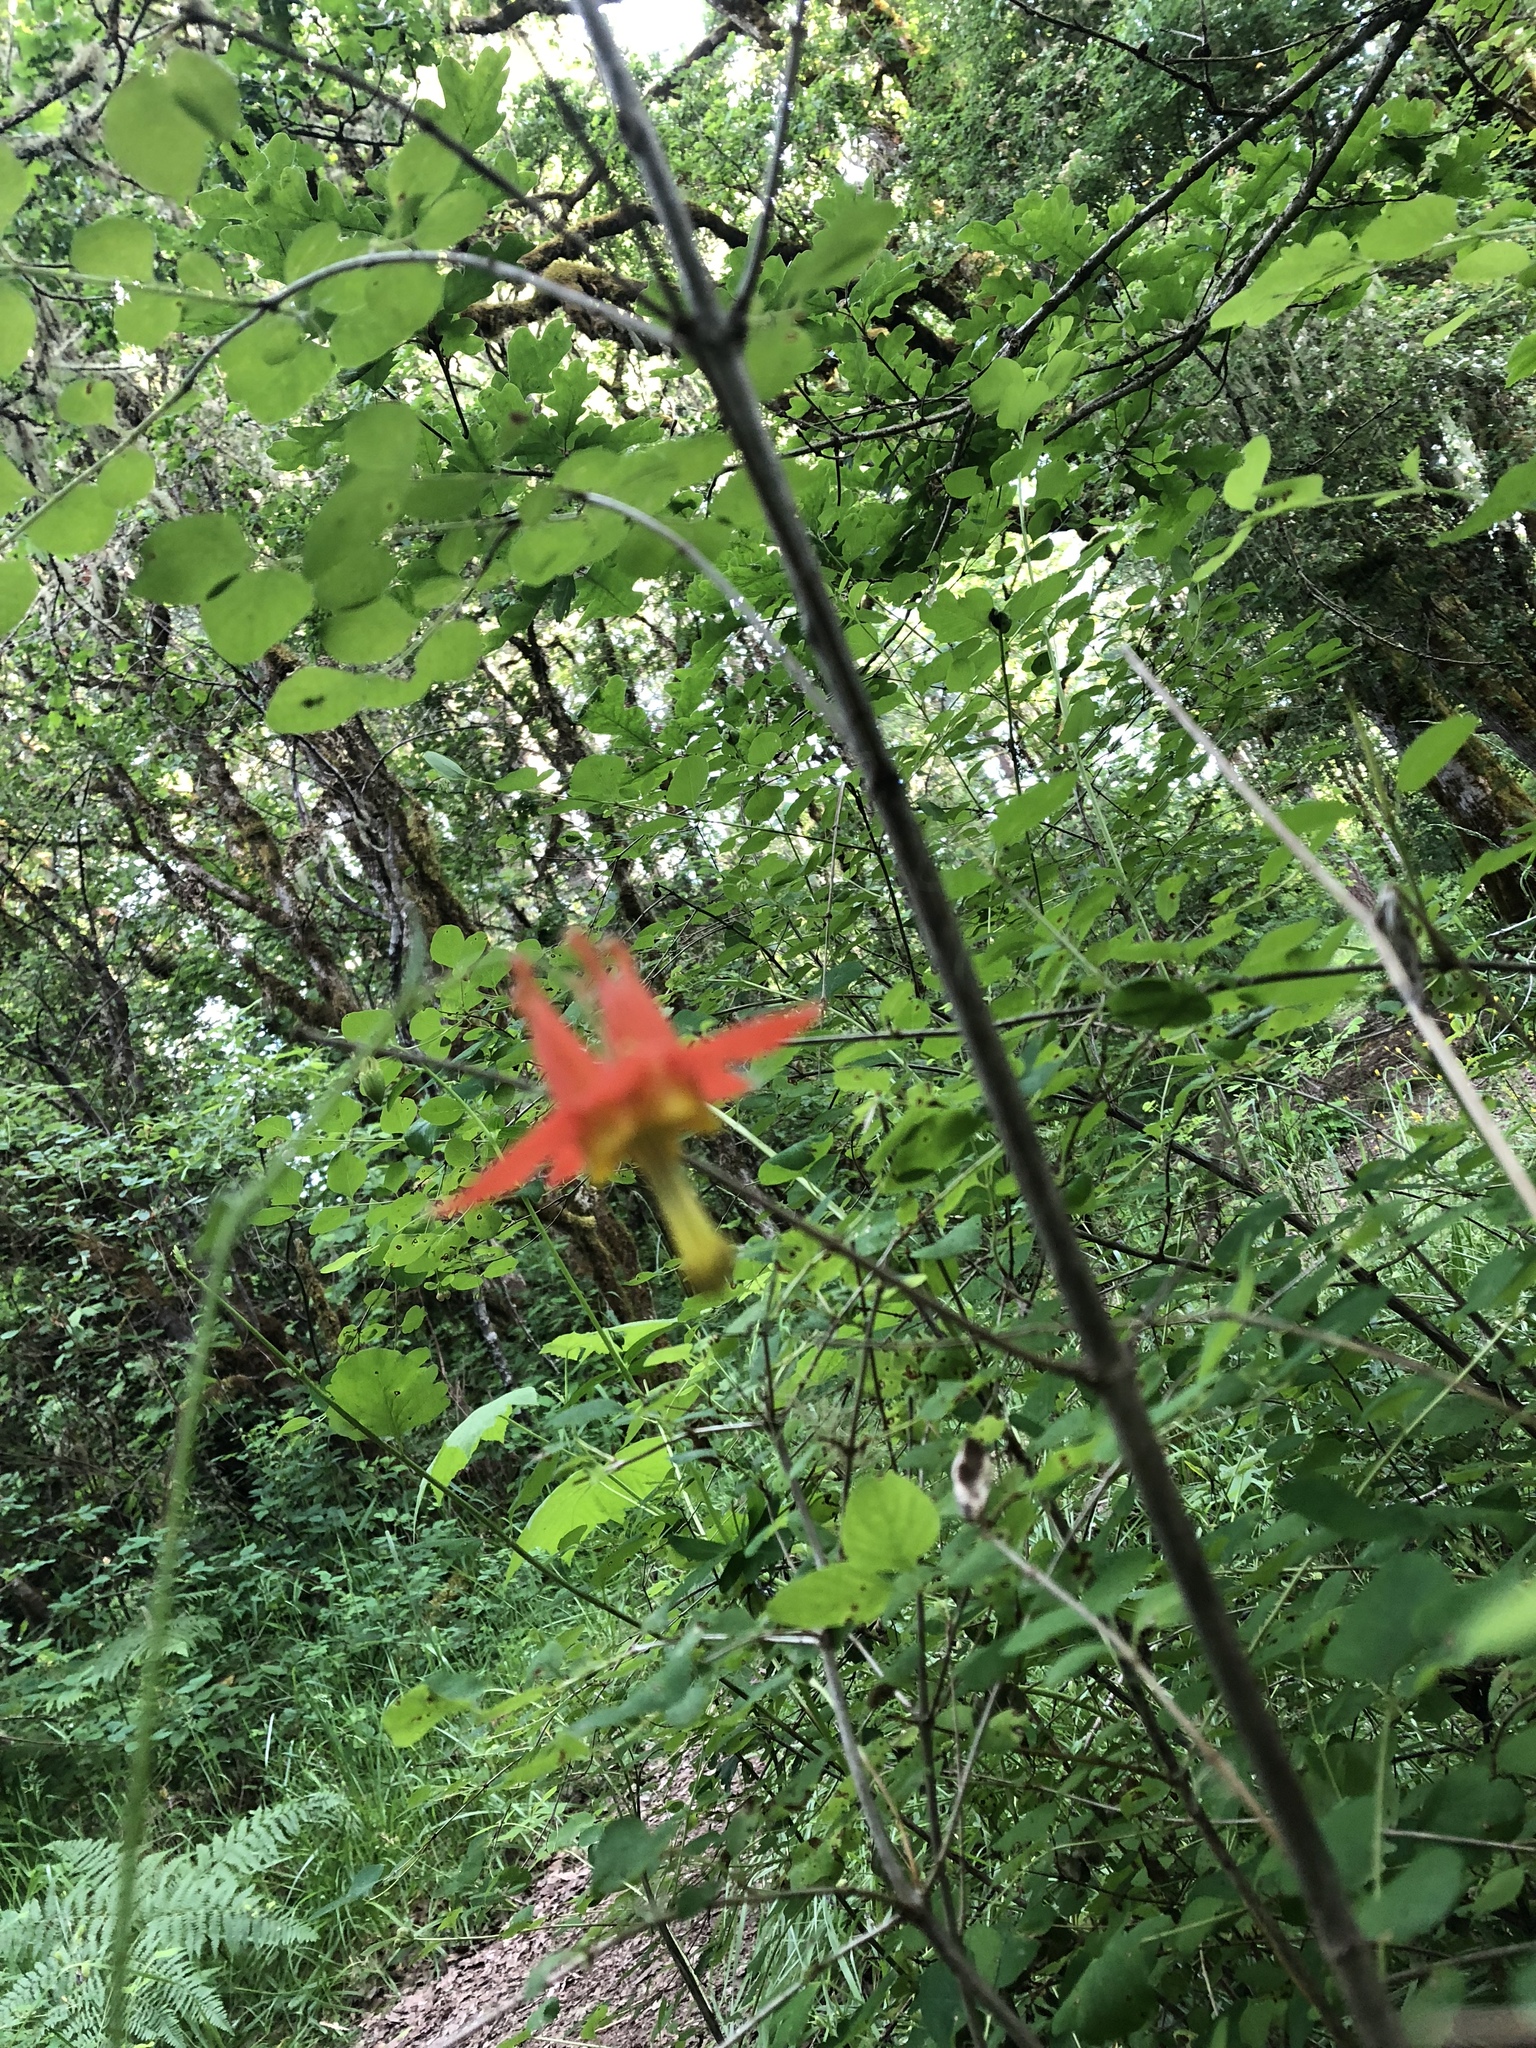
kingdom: Plantae
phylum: Tracheophyta
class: Magnoliopsida
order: Ranunculales
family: Ranunculaceae
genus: Aquilegia
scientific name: Aquilegia formosa
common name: Sitka columbine
